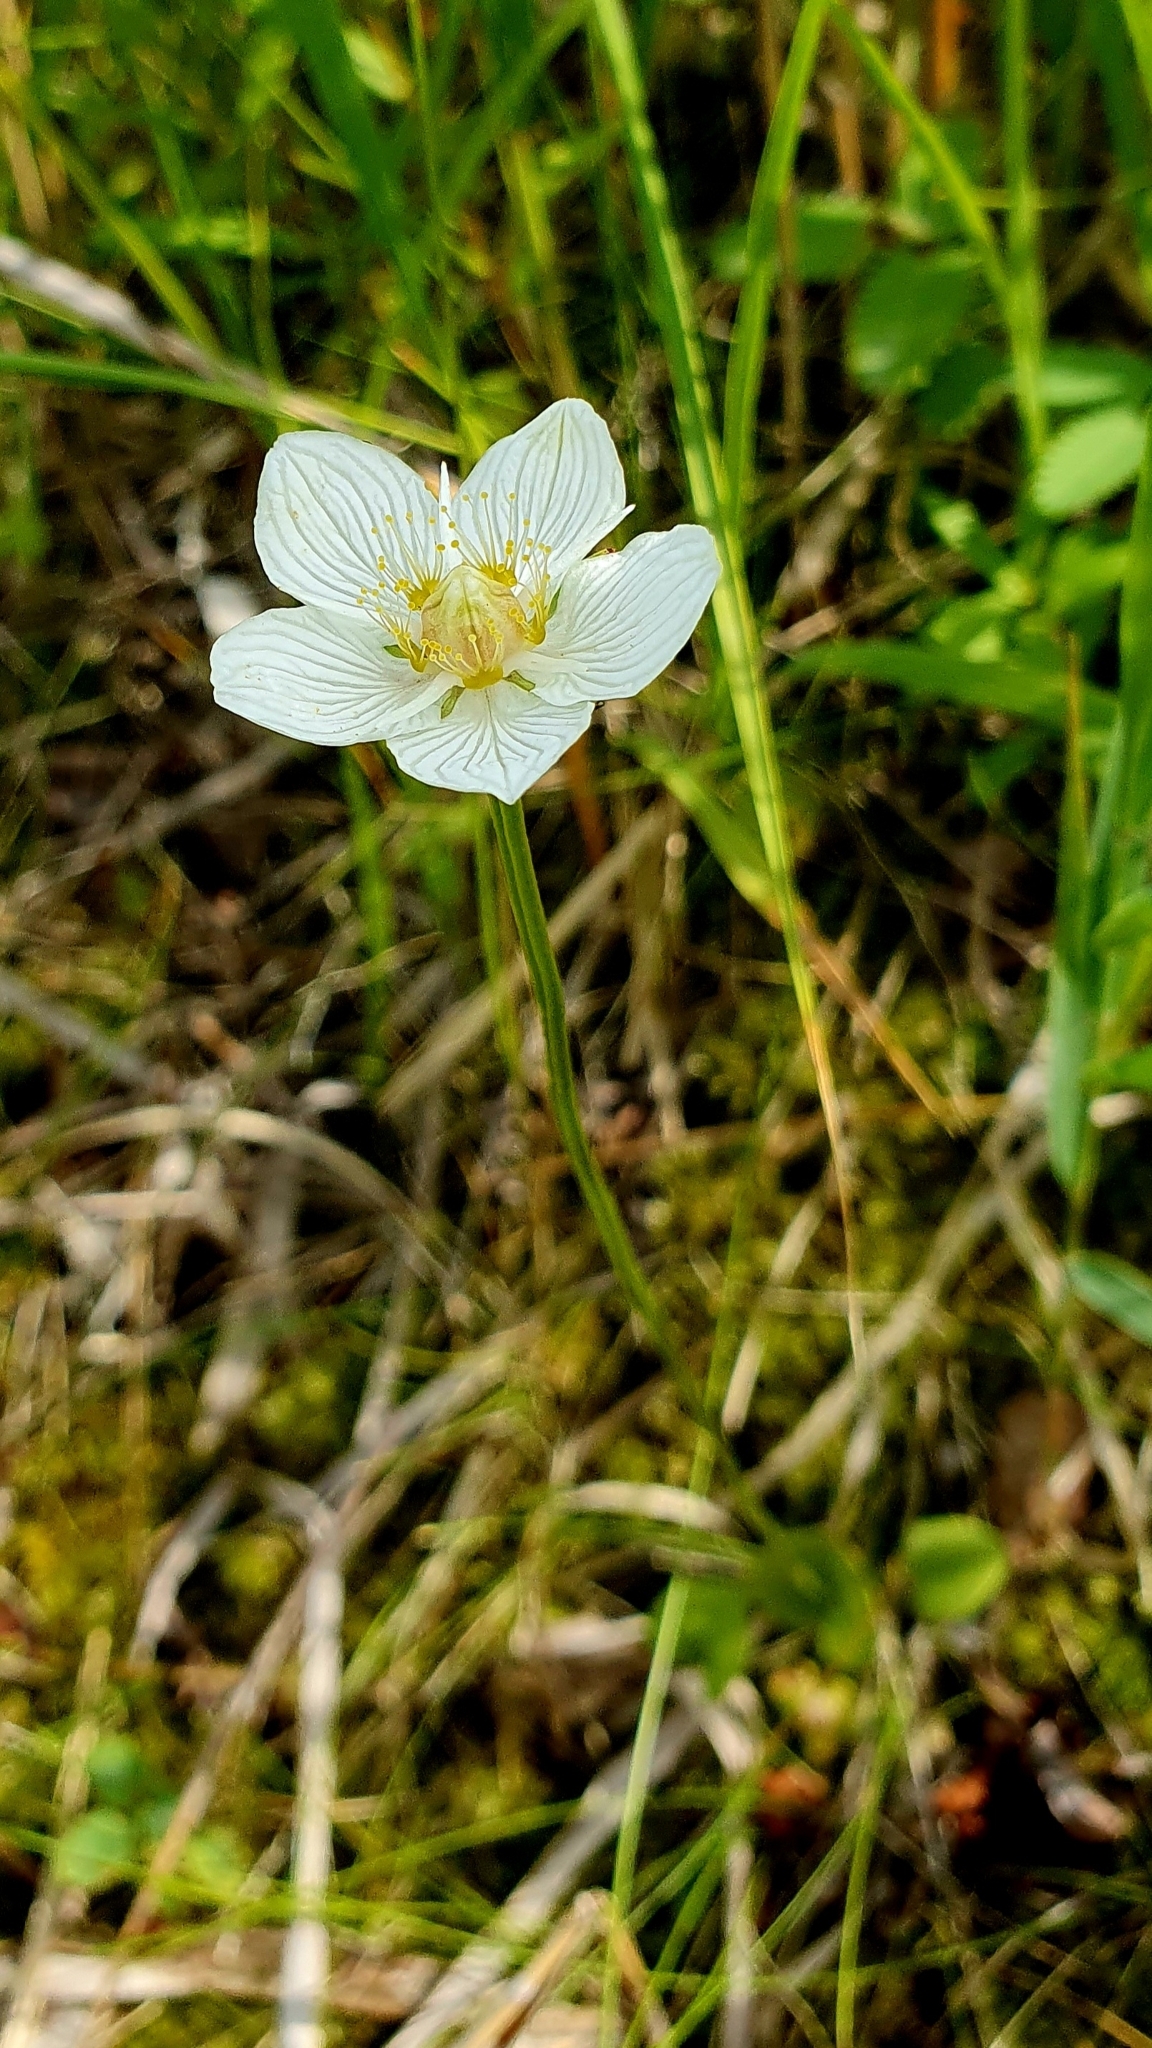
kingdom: Plantae
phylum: Tracheophyta
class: Magnoliopsida
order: Celastrales
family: Parnassiaceae
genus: Parnassia
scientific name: Parnassia palustris
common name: Grass-of-parnassus
